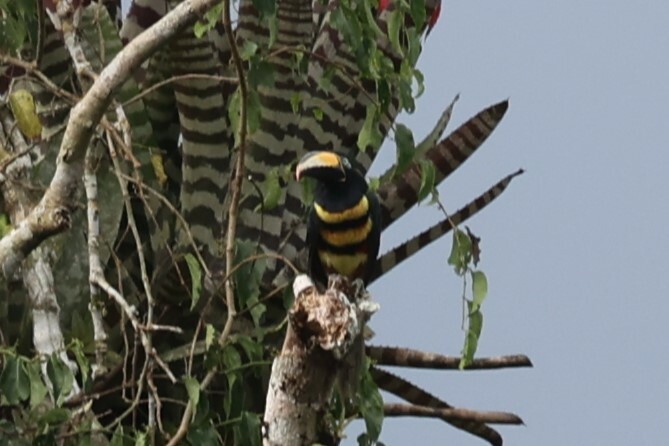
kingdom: Animalia
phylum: Chordata
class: Aves
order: Piciformes
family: Ramphastidae
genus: Pteroglossus
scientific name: Pteroglossus pluricinctus
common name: Many-banded aracari
